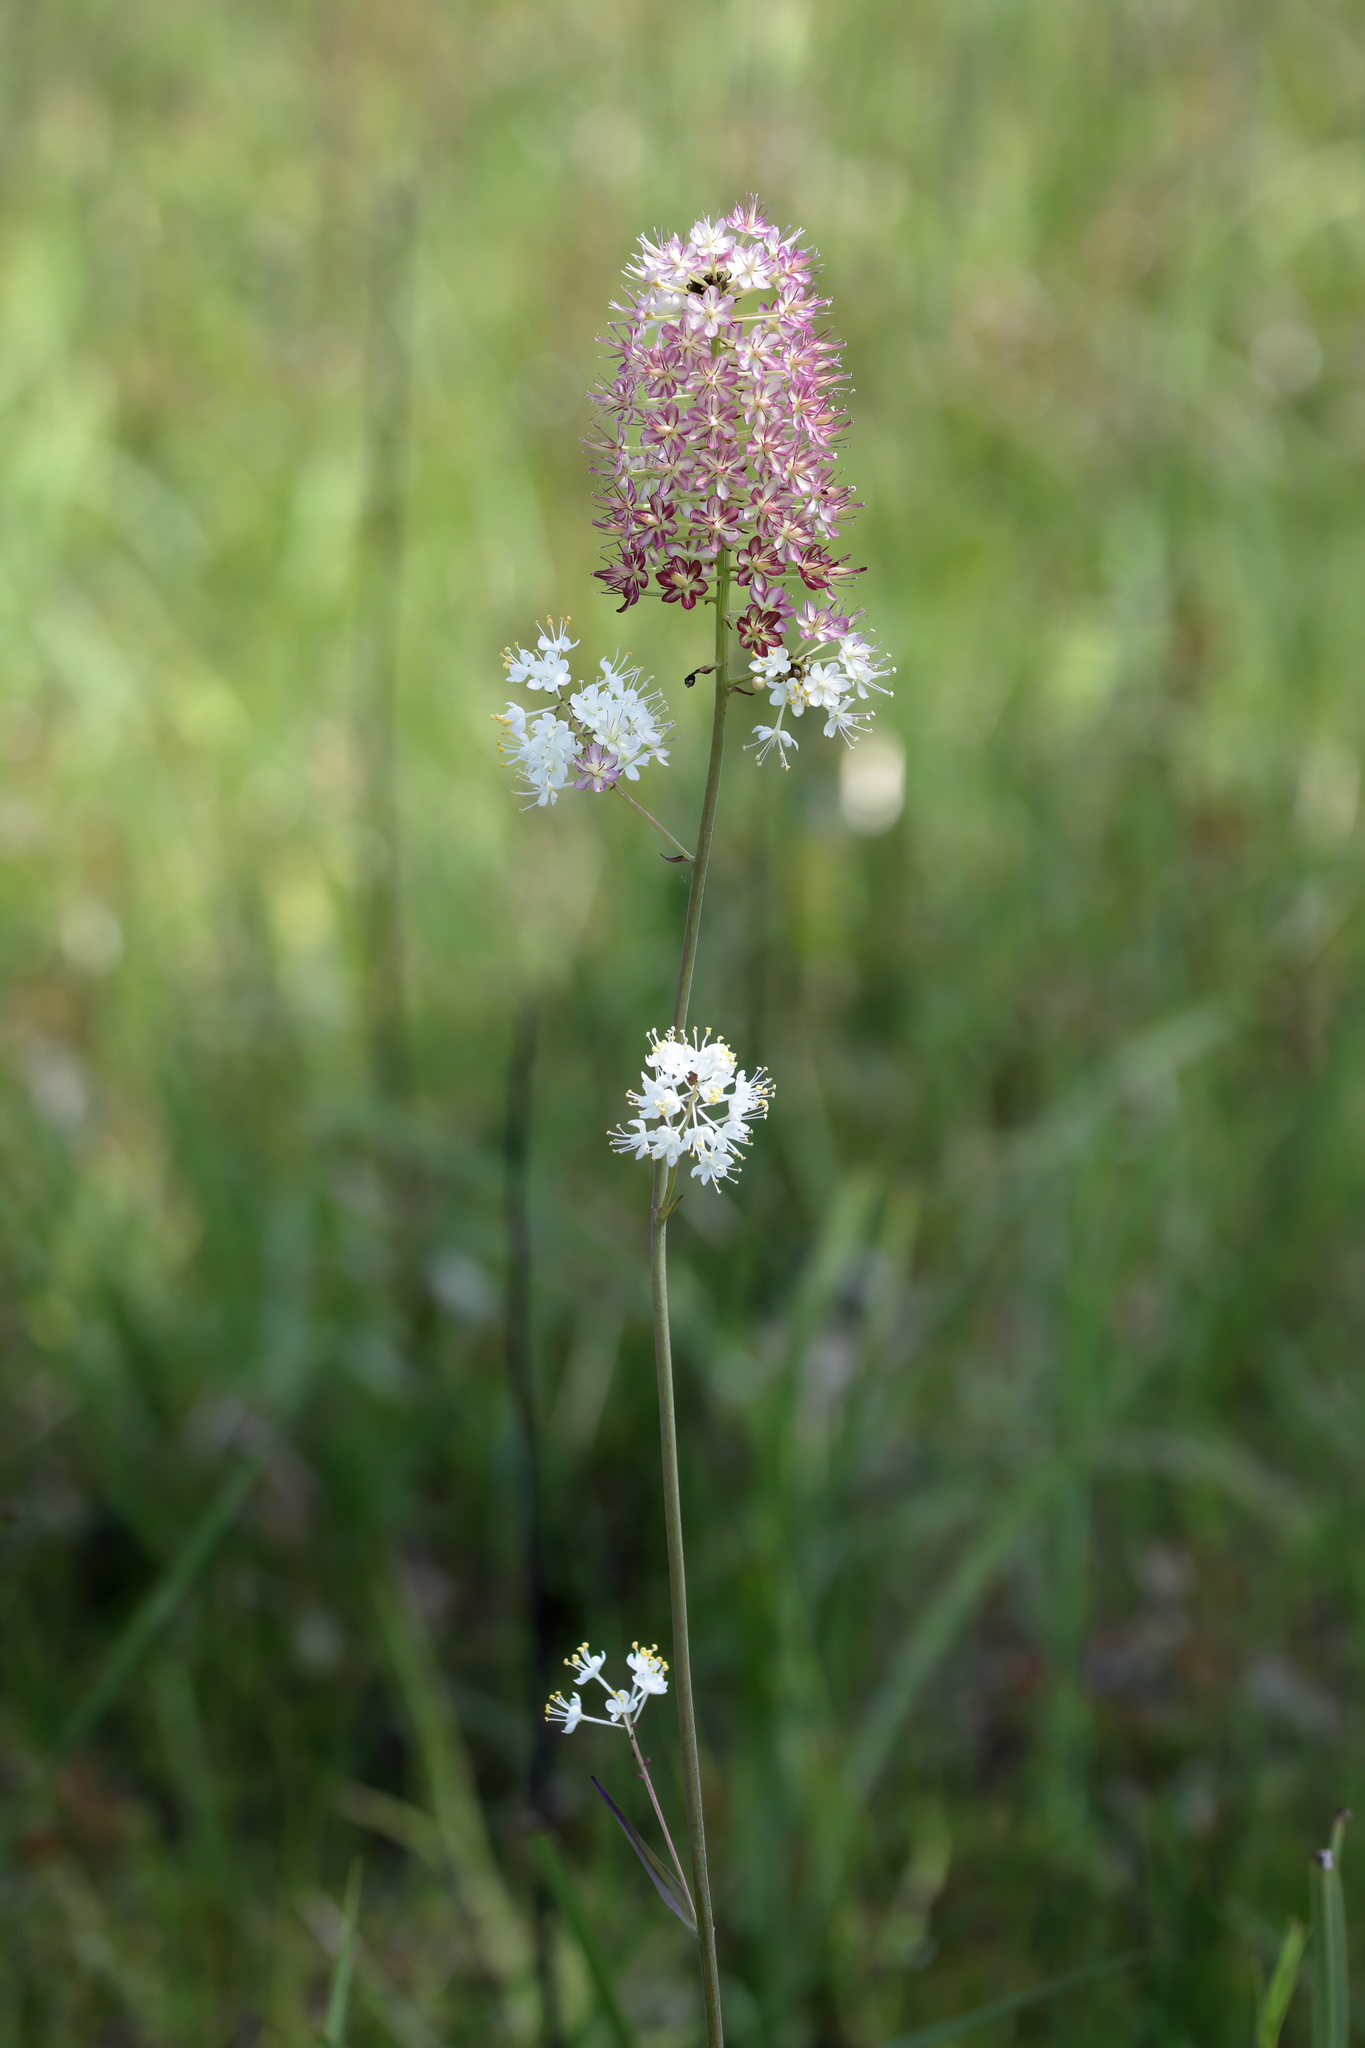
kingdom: Plantae
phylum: Tracheophyta
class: Liliopsida
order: Liliales
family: Melanthiaceae
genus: Stenanthium
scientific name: Stenanthium densum
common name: Crow-poison
